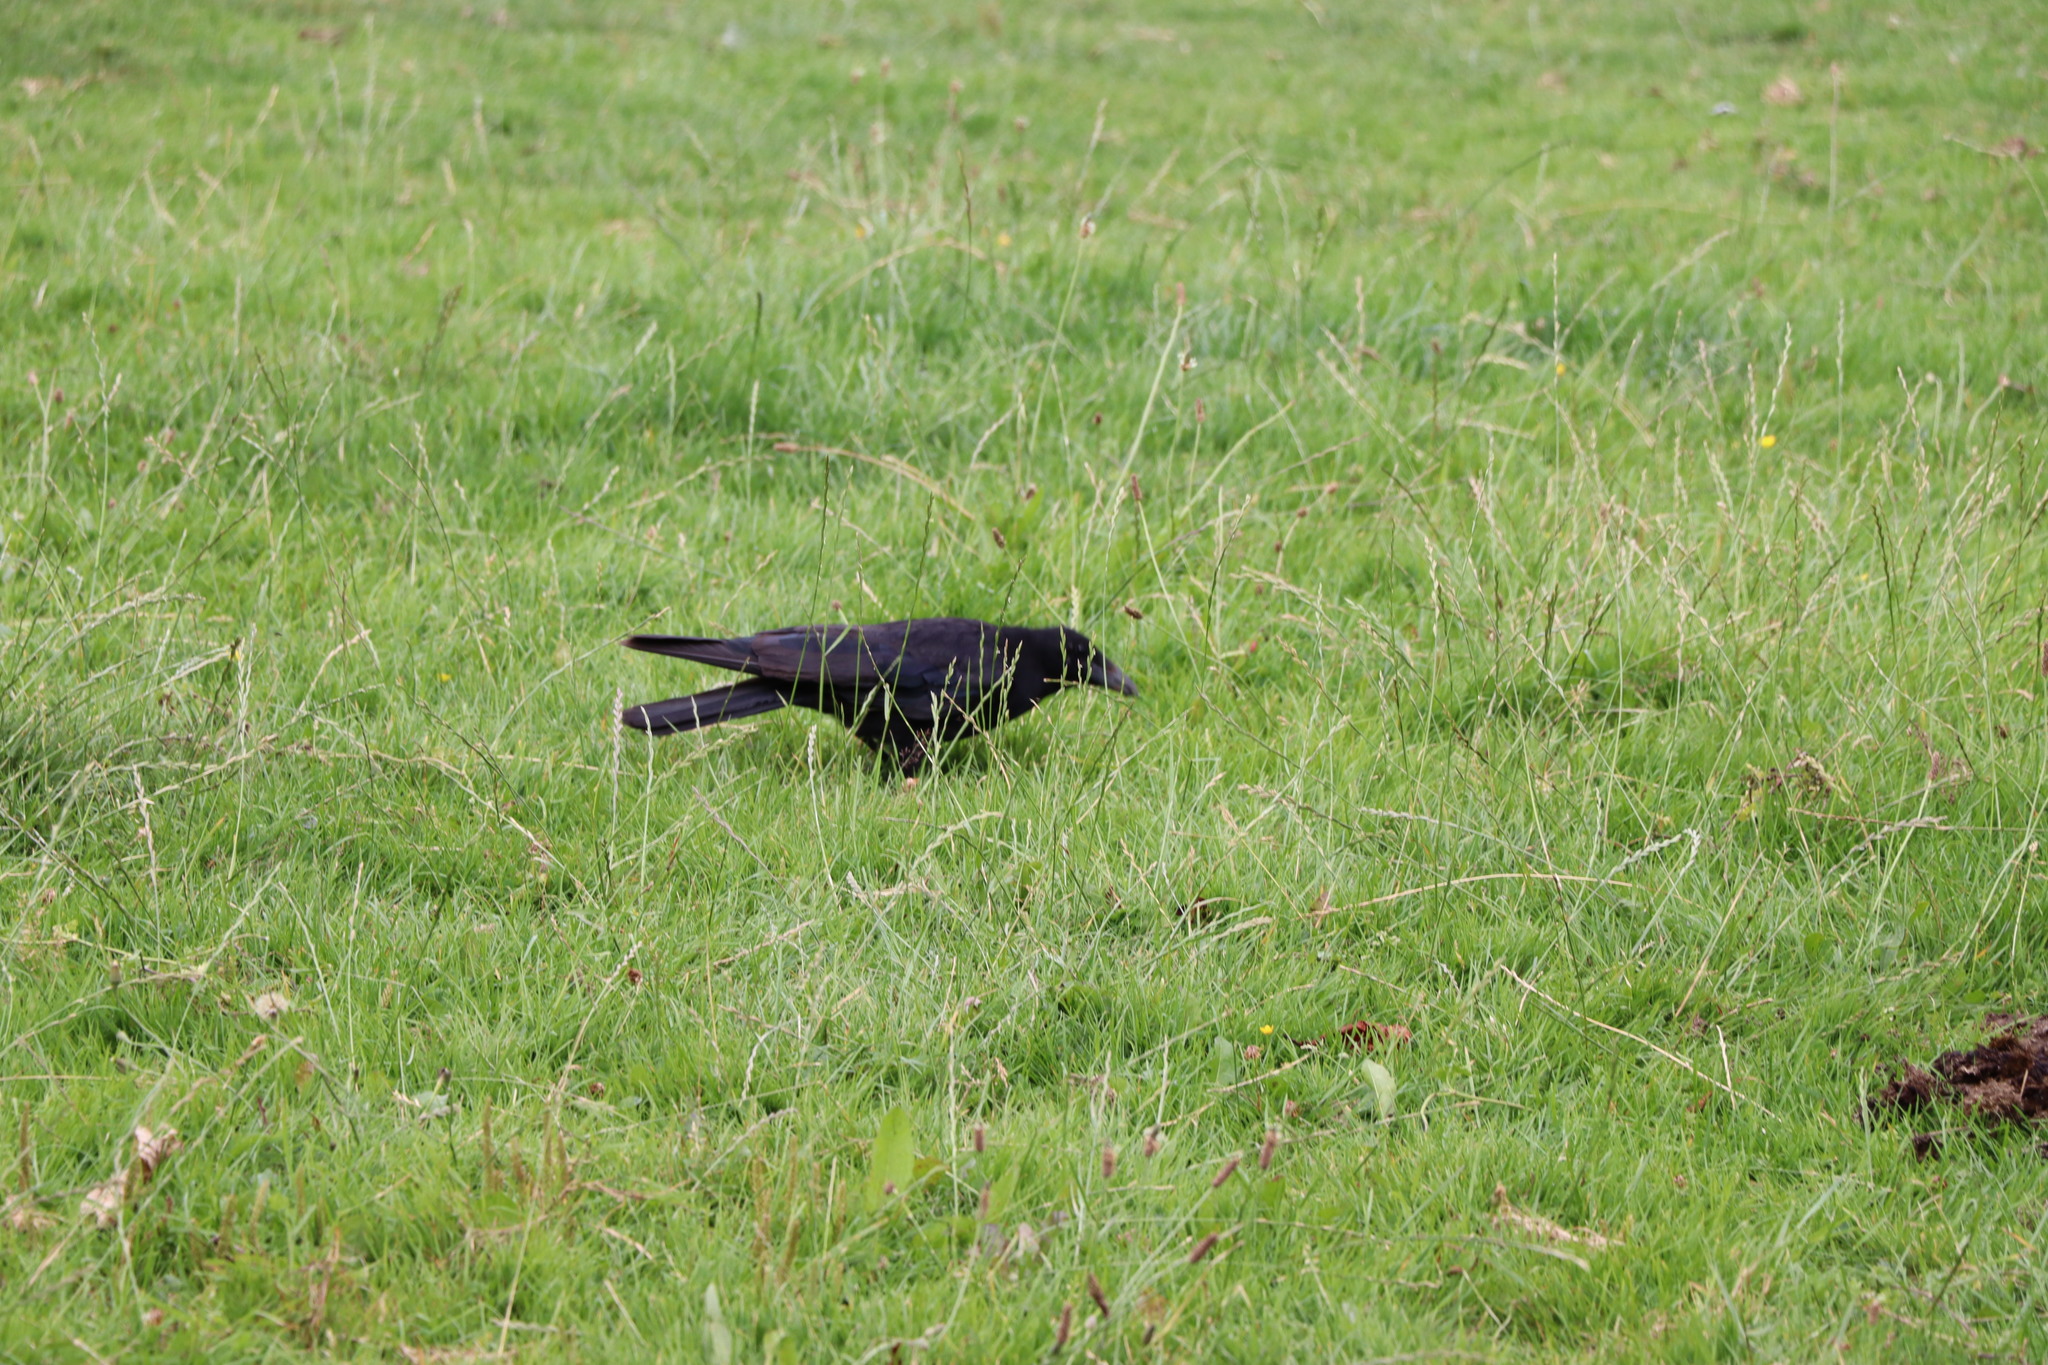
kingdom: Animalia
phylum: Chordata
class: Aves
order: Passeriformes
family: Corvidae
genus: Corvus
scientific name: Corvus corone
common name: Carrion crow
